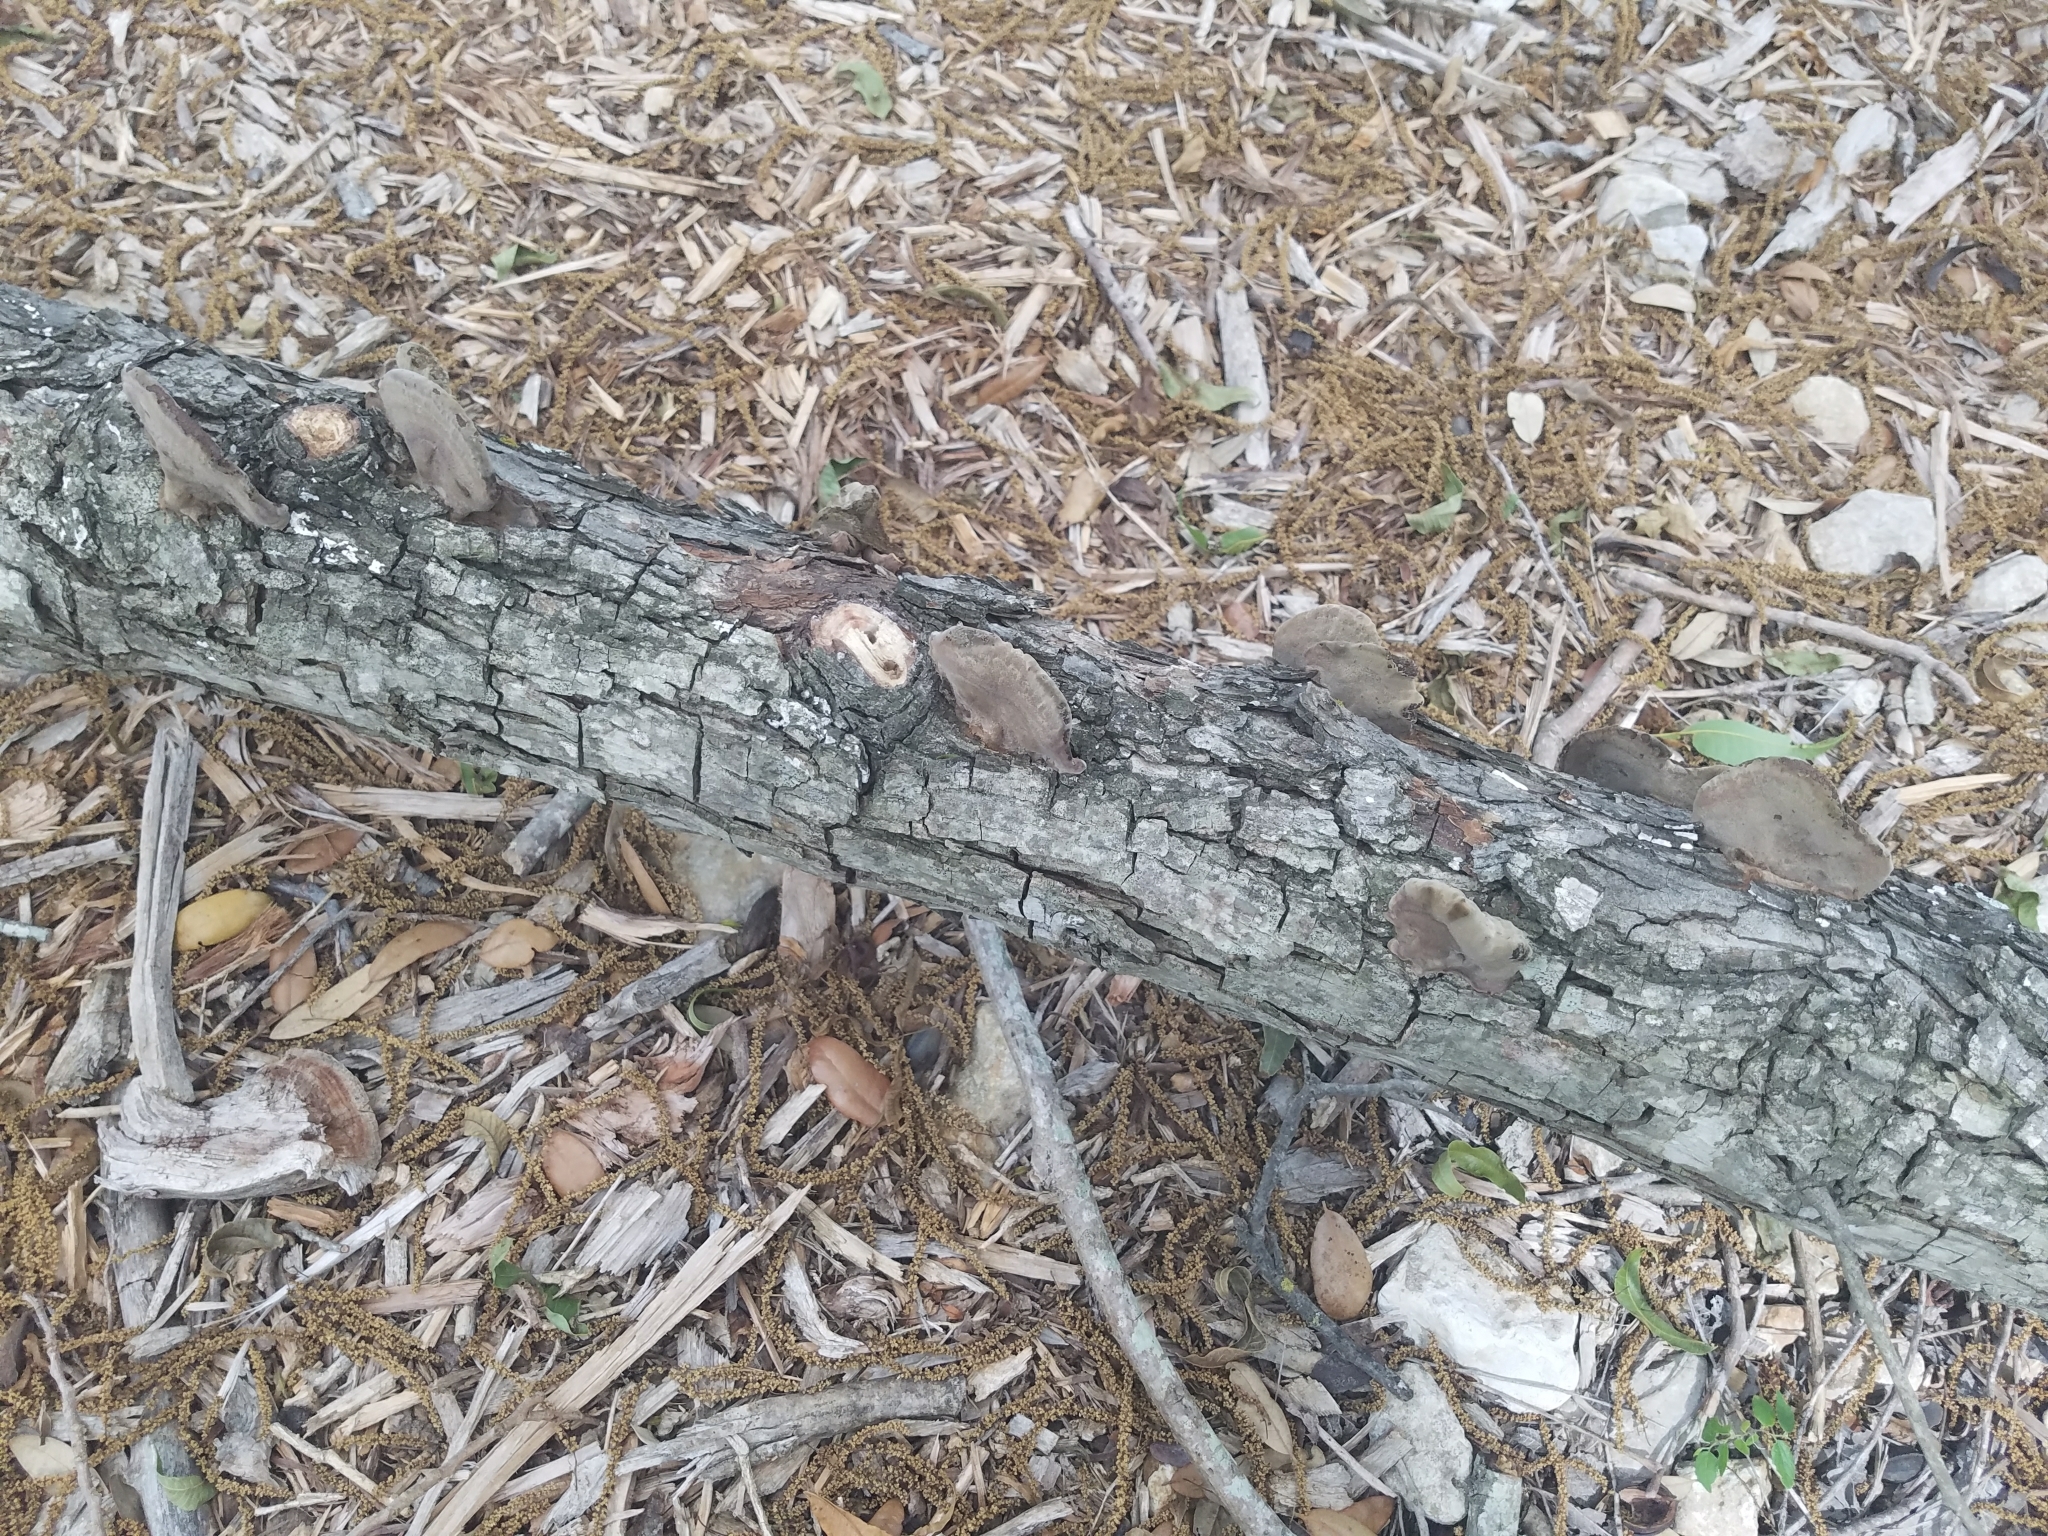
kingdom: Fungi
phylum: Basidiomycota
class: Agaricomycetes
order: Polyporales
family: Cerrenaceae
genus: Cerrena
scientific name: Cerrena hydnoides
